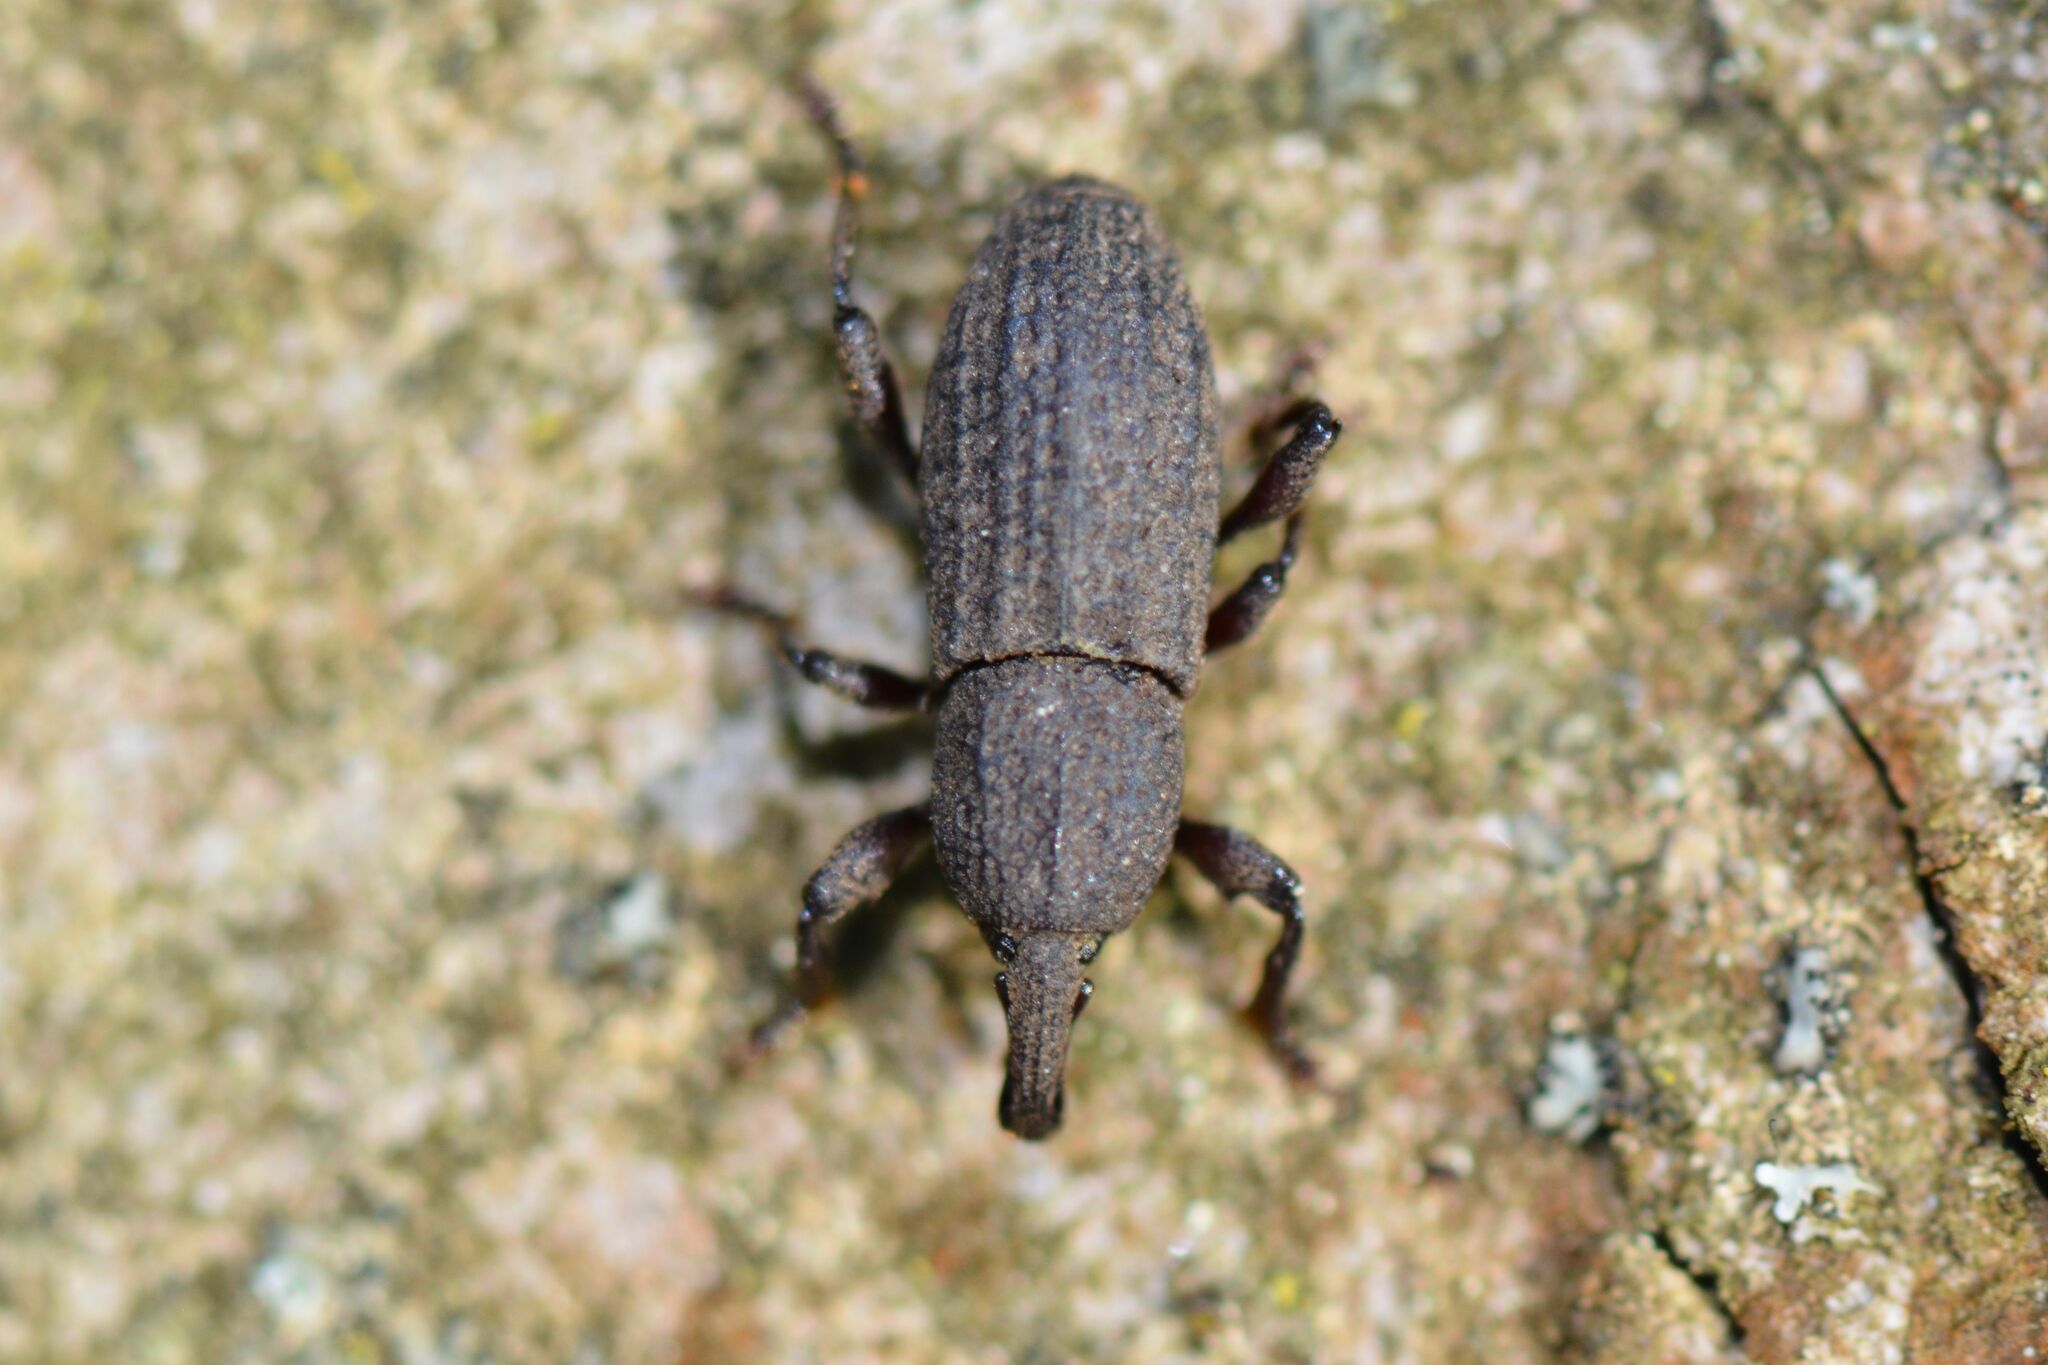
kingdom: Animalia
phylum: Arthropoda
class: Insecta
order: Coleoptera
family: Curculionidae
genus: Mitoplinthus
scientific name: Mitoplinthus caliginosus
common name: Hop root weevil
